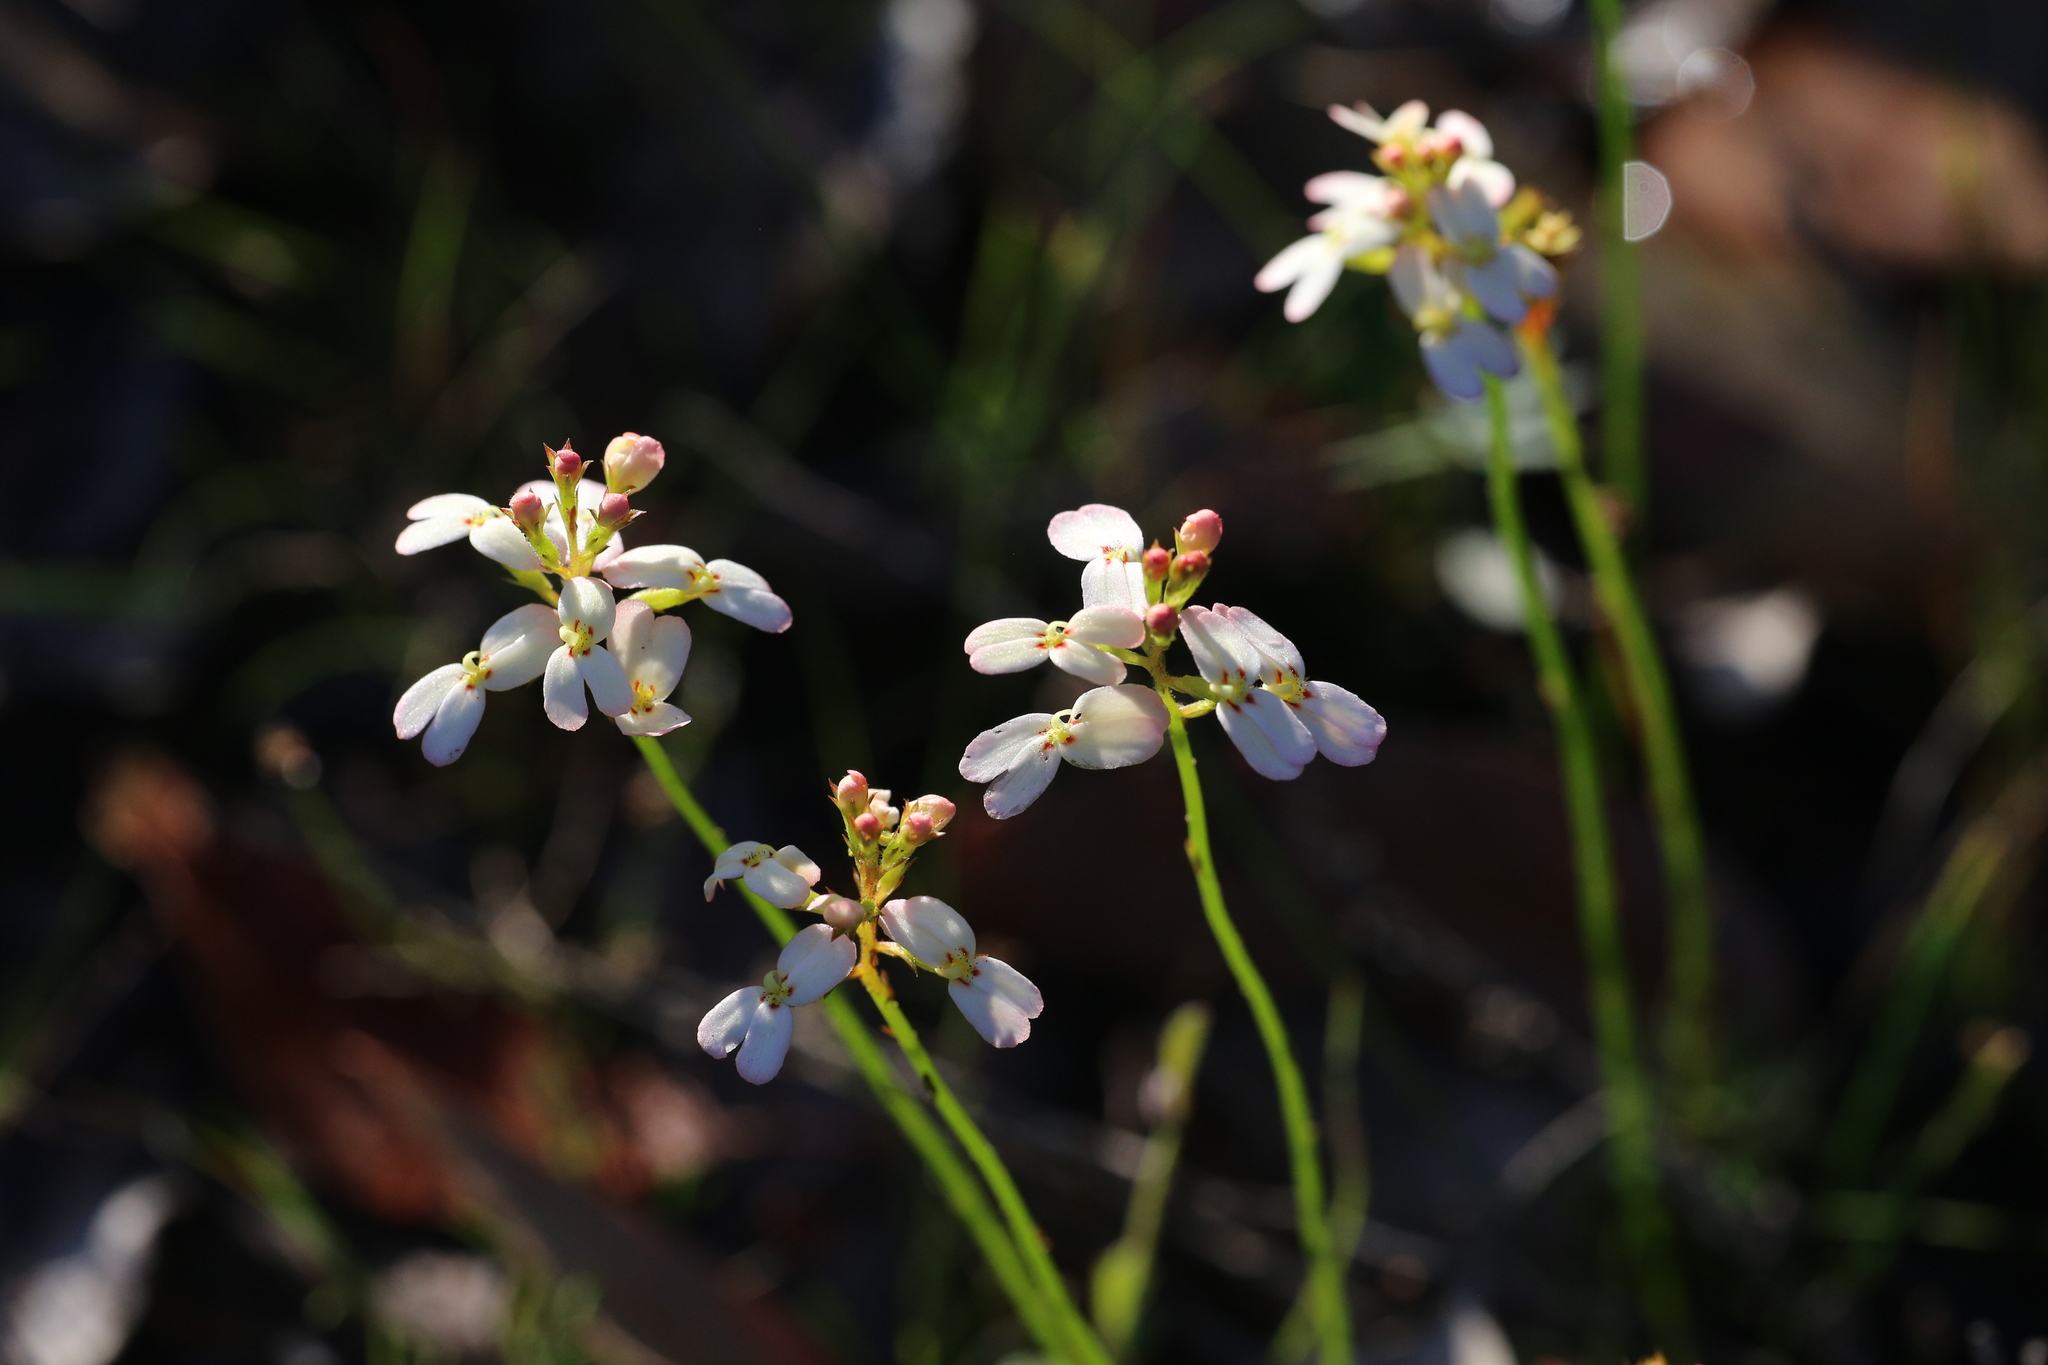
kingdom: Plantae
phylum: Tracheophyta
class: Magnoliopsida
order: Asterales
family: Stylidiaceae
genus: Stylidium
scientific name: Stylidium junceum
